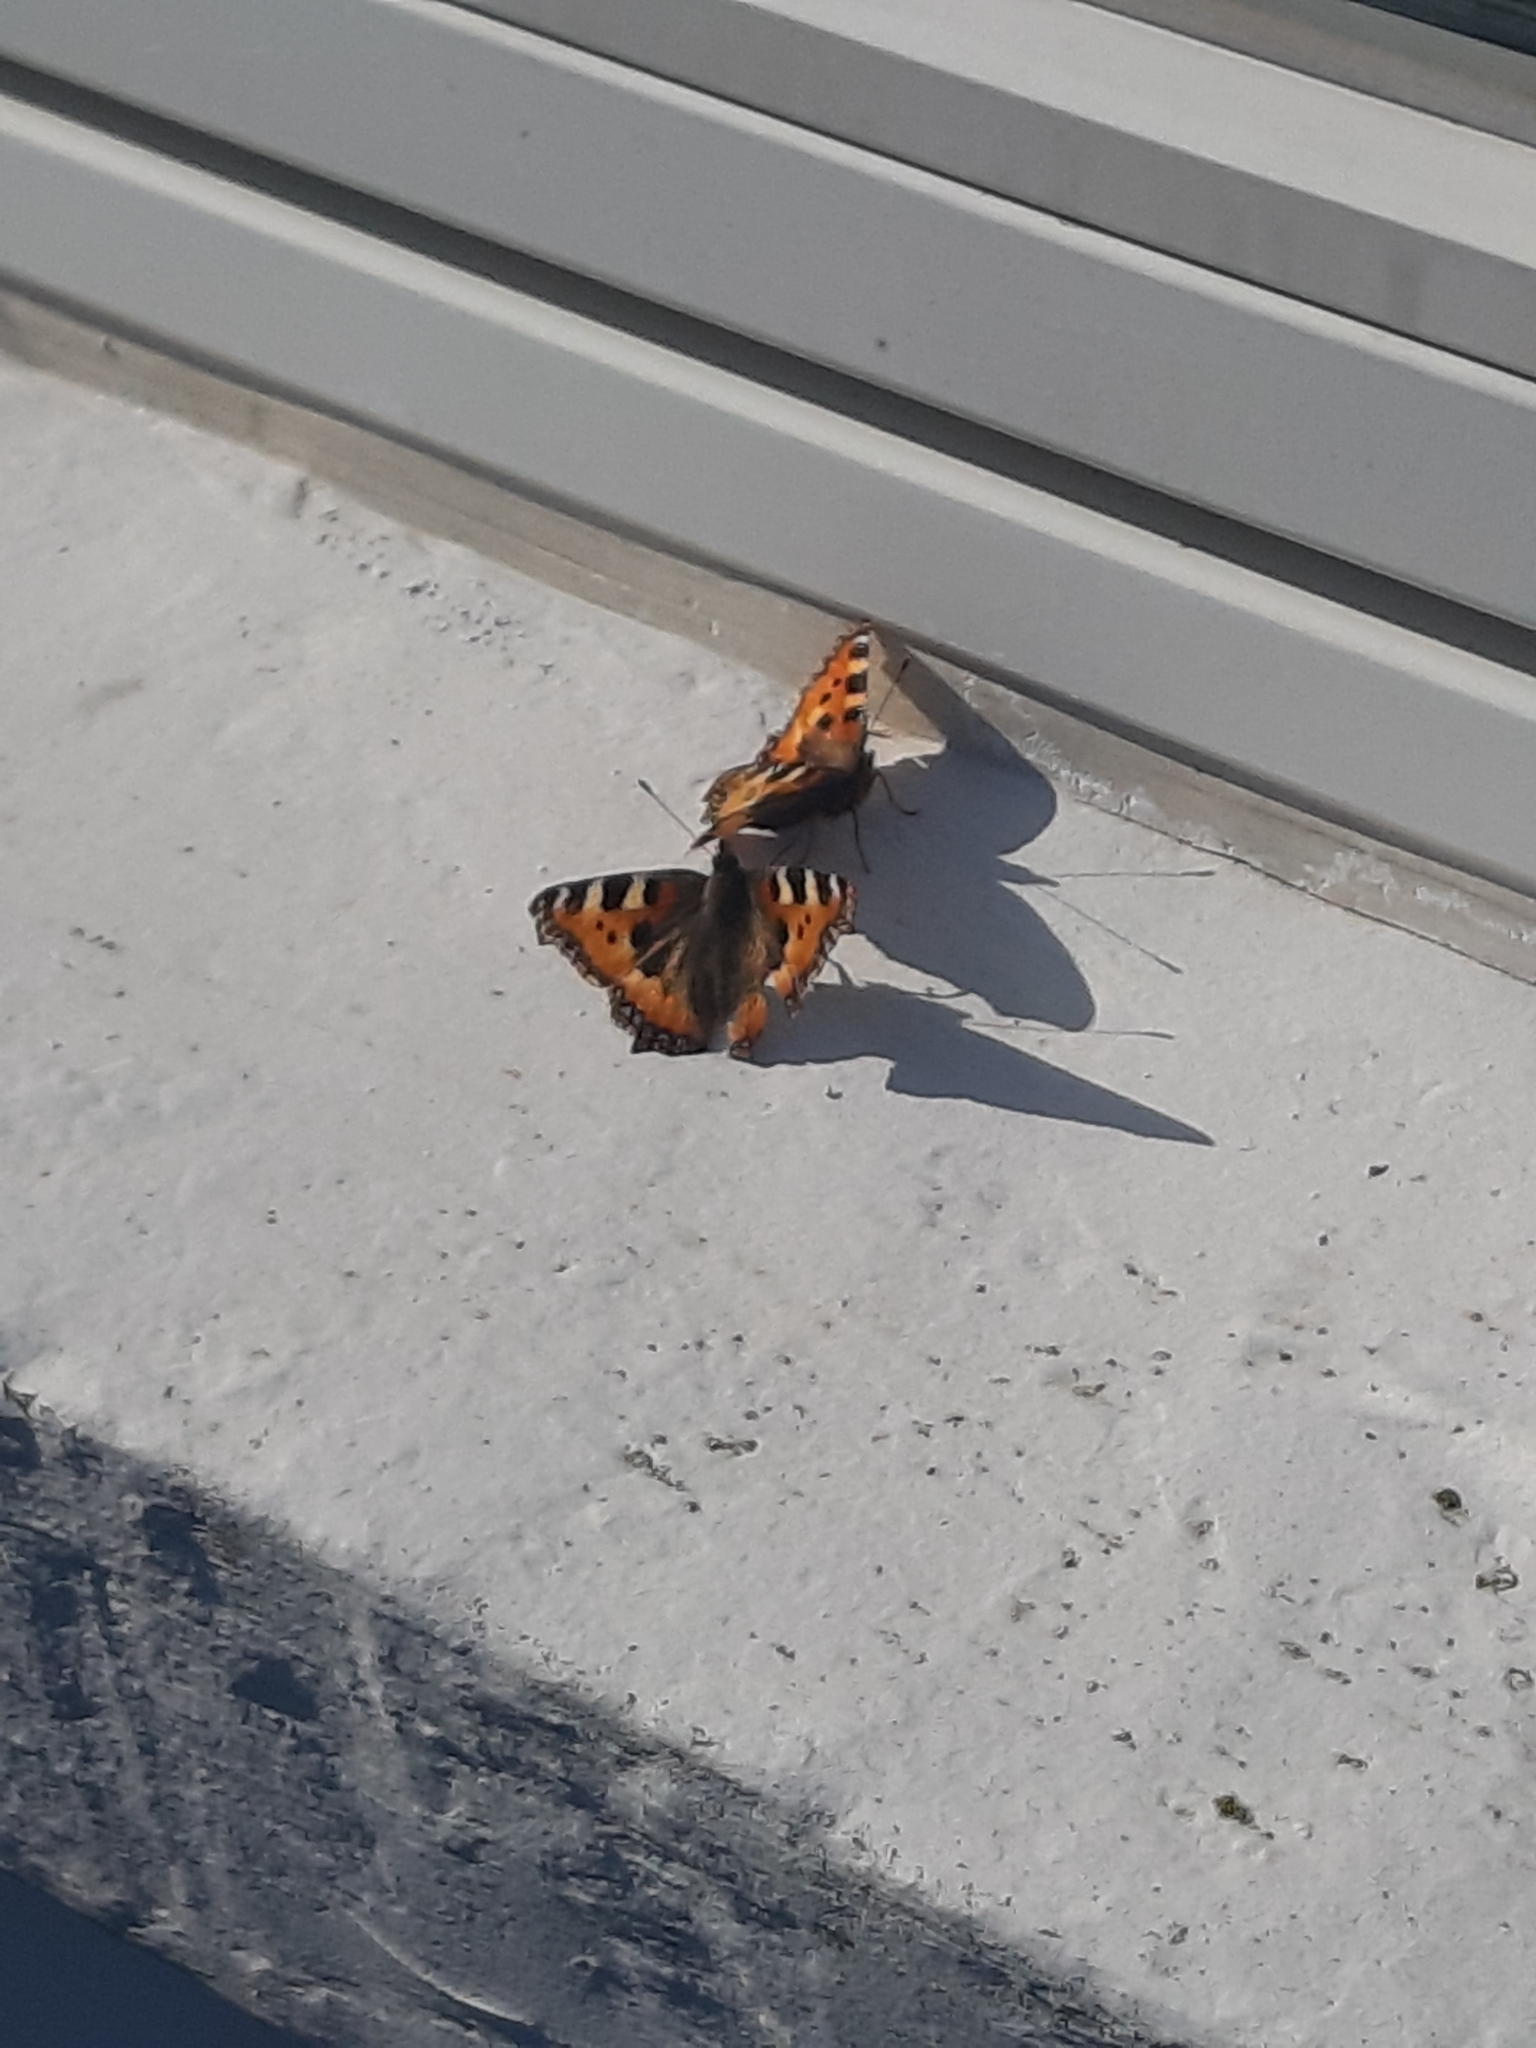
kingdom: Animalia
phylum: Arthropoda
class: Insecta
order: Lepidoptera
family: Nymphalidae
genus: Aglais
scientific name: Aglais urticae
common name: Small tortoiseshell
